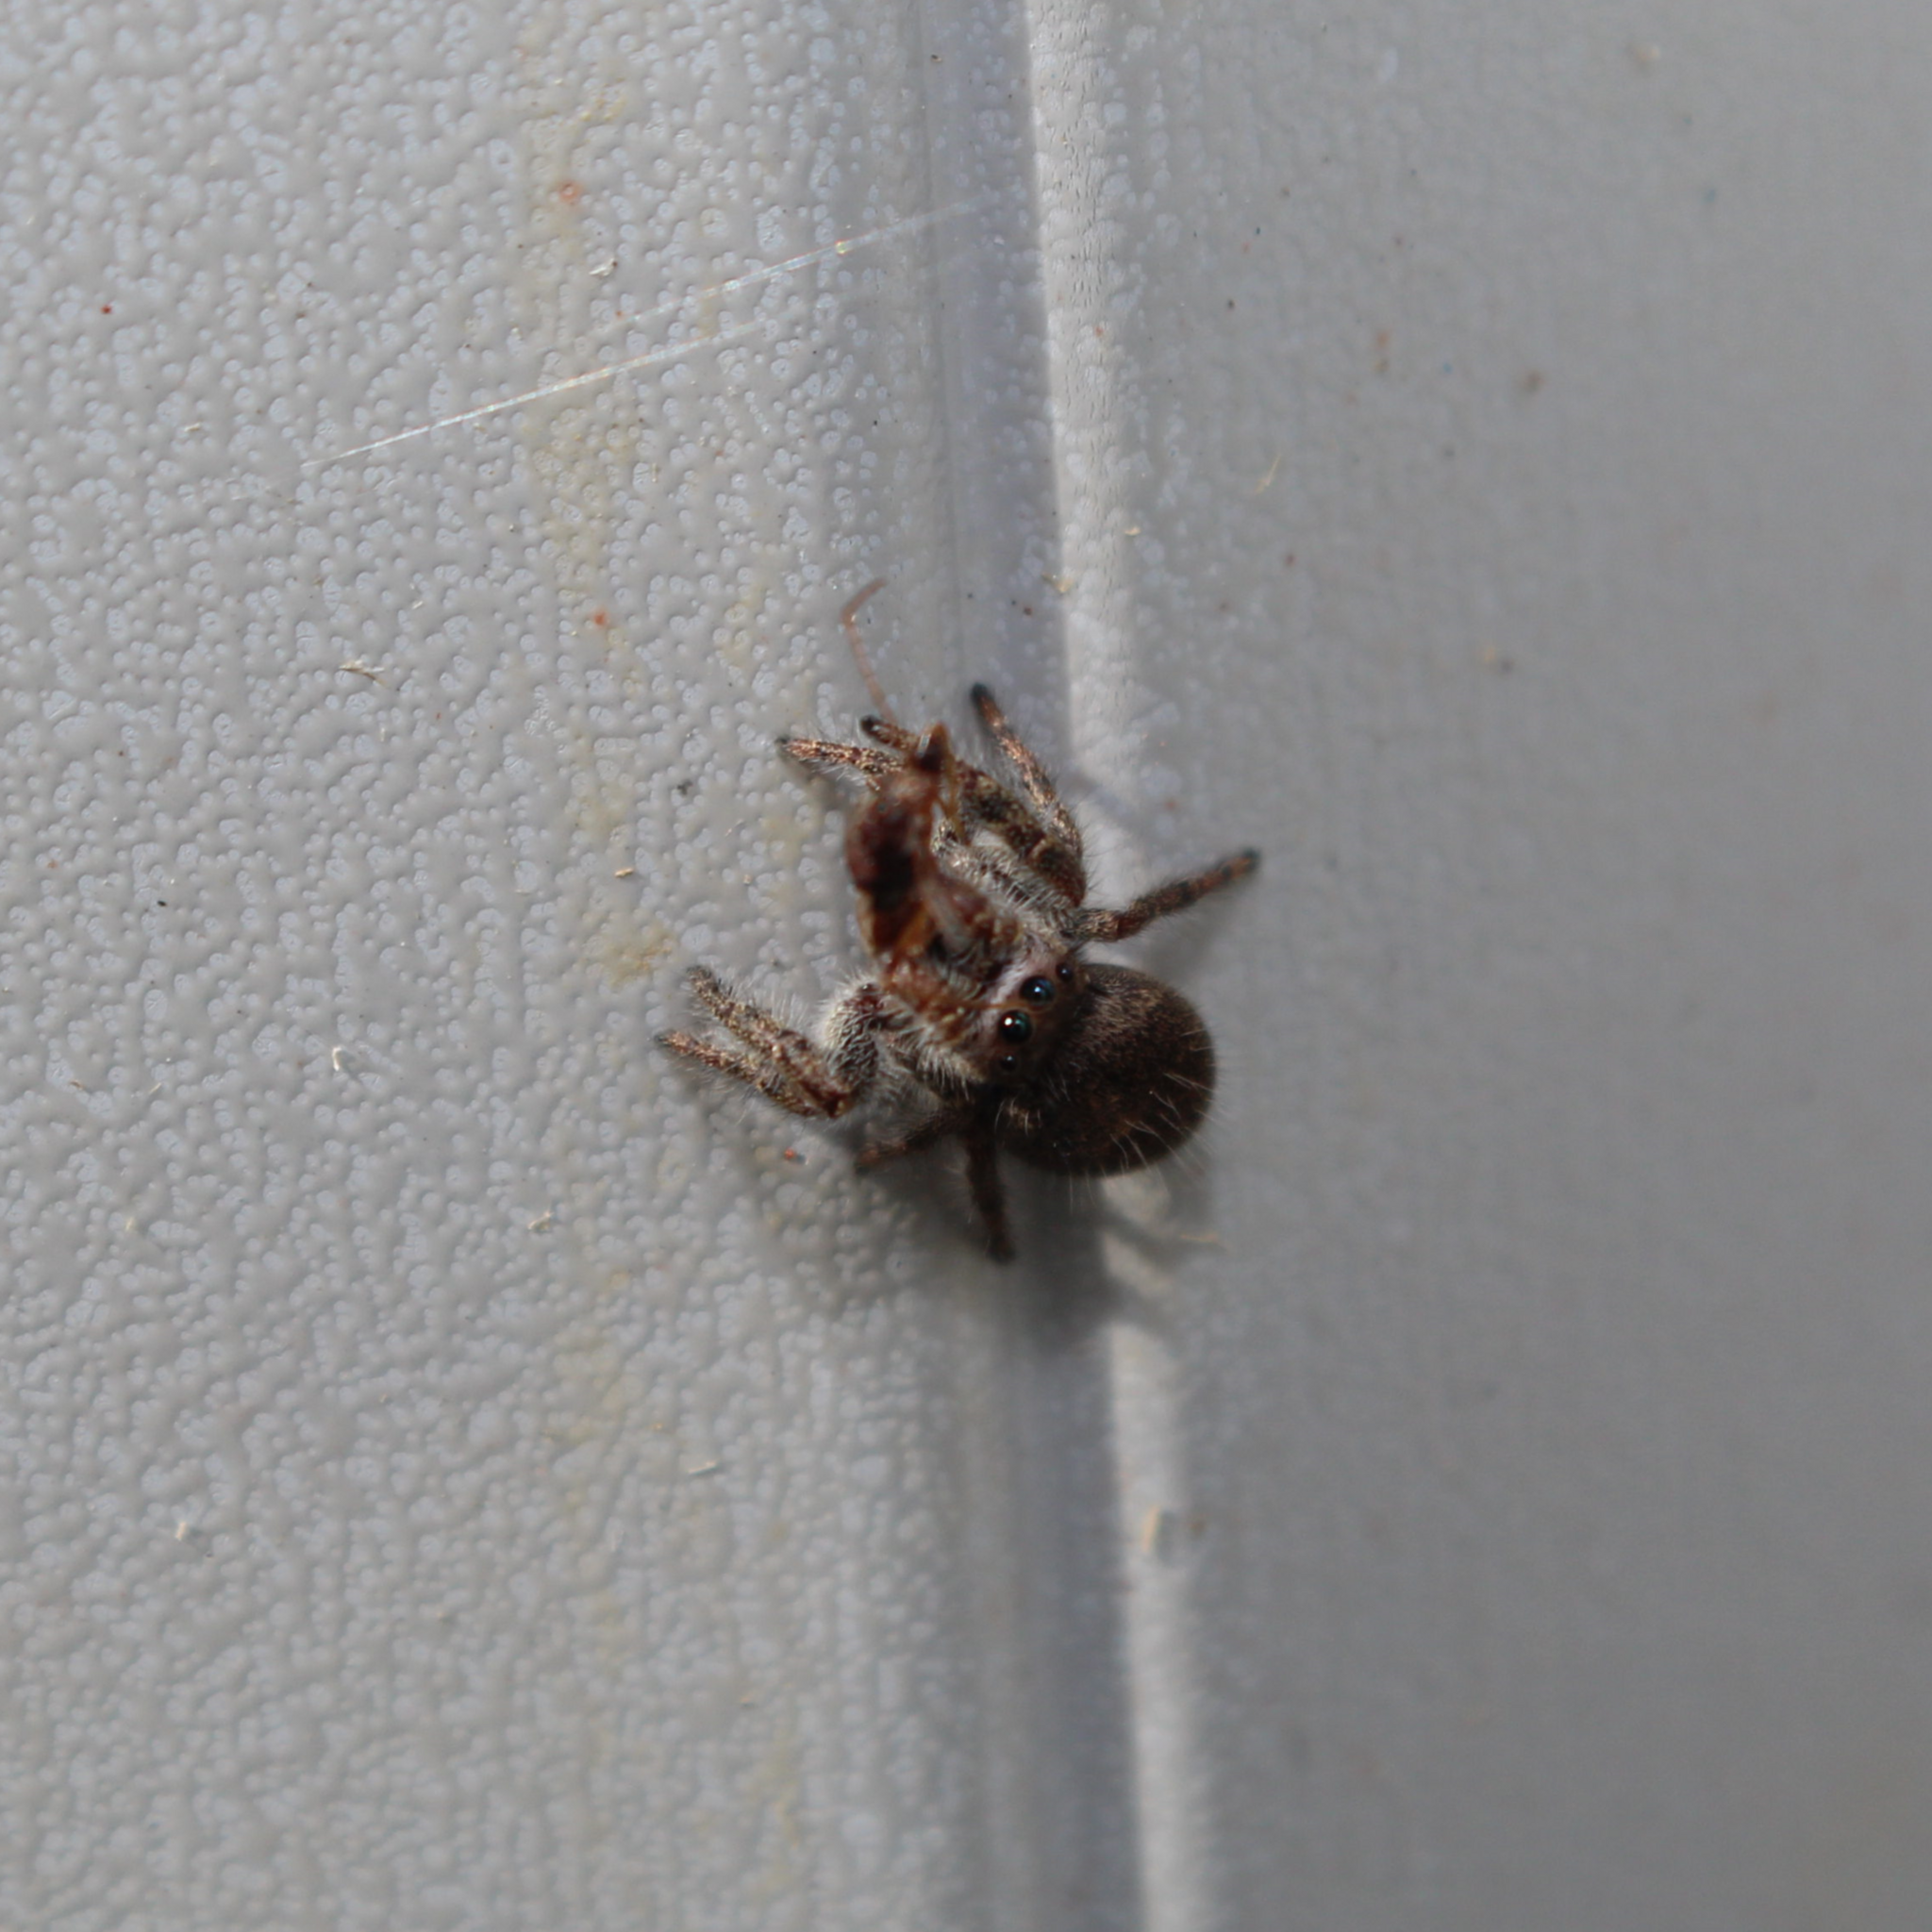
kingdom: Animalia
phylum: Arthropoda
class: Arachnida
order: Araneae
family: Salticidae
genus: Phidippus
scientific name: Phidippus princeps
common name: Grayish jumping spider
